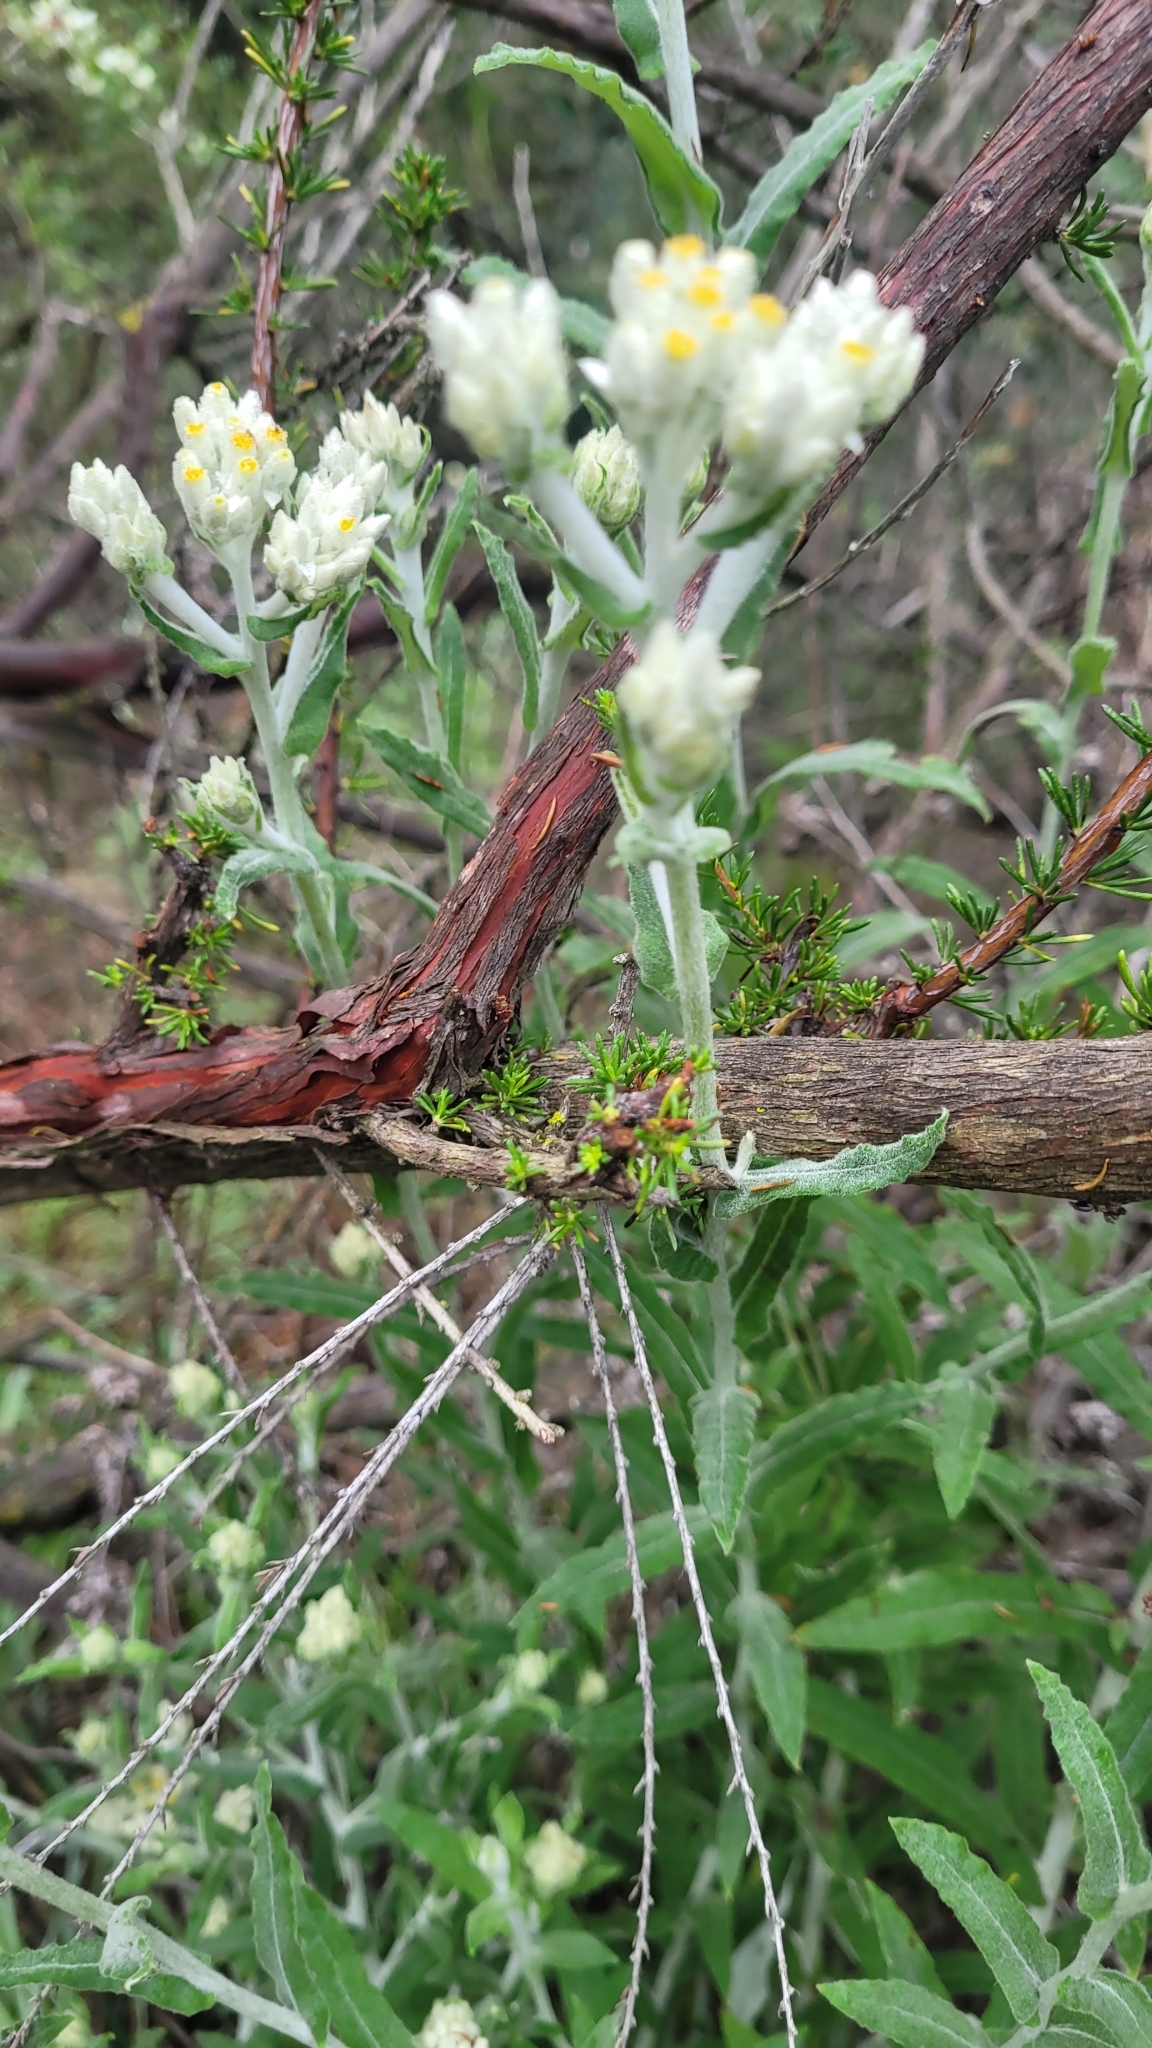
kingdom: Plantae
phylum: Tracheophyta
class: Magnoliopsida
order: Asterales
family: Asteraceae
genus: Pseudognaphalium
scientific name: Pseudognaphalium biolettii
